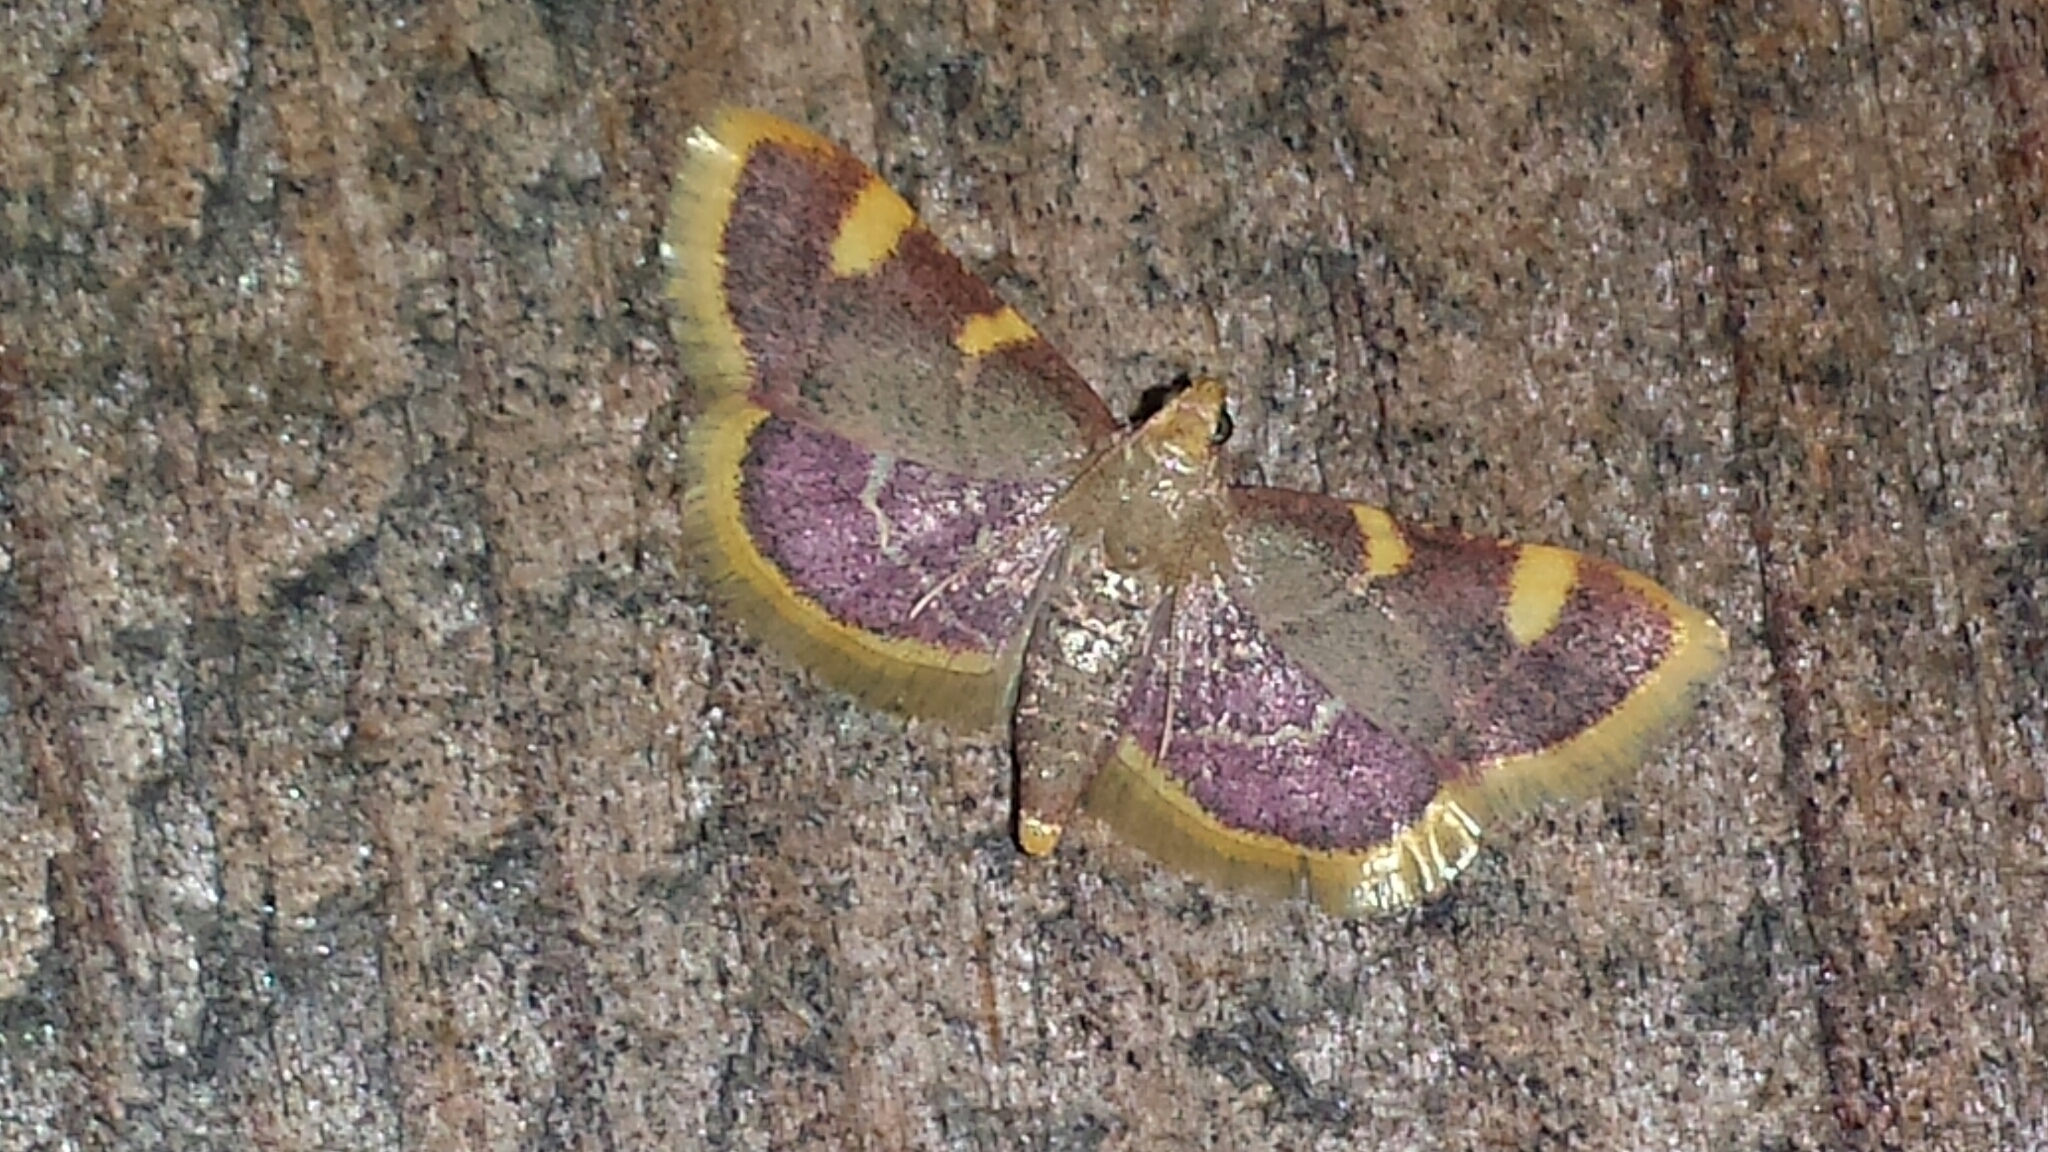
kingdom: Animalia
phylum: Arthropoda
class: Insecta
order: Lepidoptera
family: Pyralidae
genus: Hypsopygia
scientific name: Hypsopygia costalis
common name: Gold triangle
